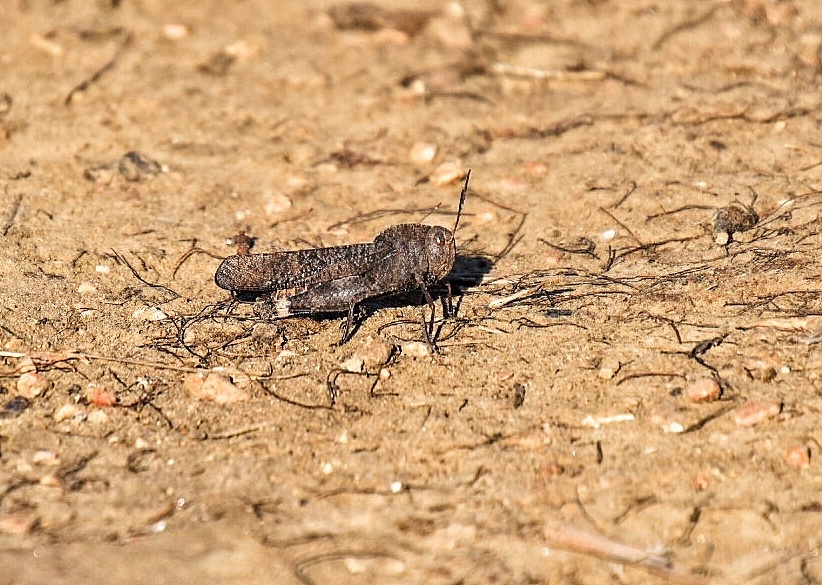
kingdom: Animalia
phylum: Arthropoda
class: Insecta
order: Orthoptera
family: Acrididae
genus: Arphia
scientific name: Arphia xanthoptera
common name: Autumn yellow-winged grasshopper
